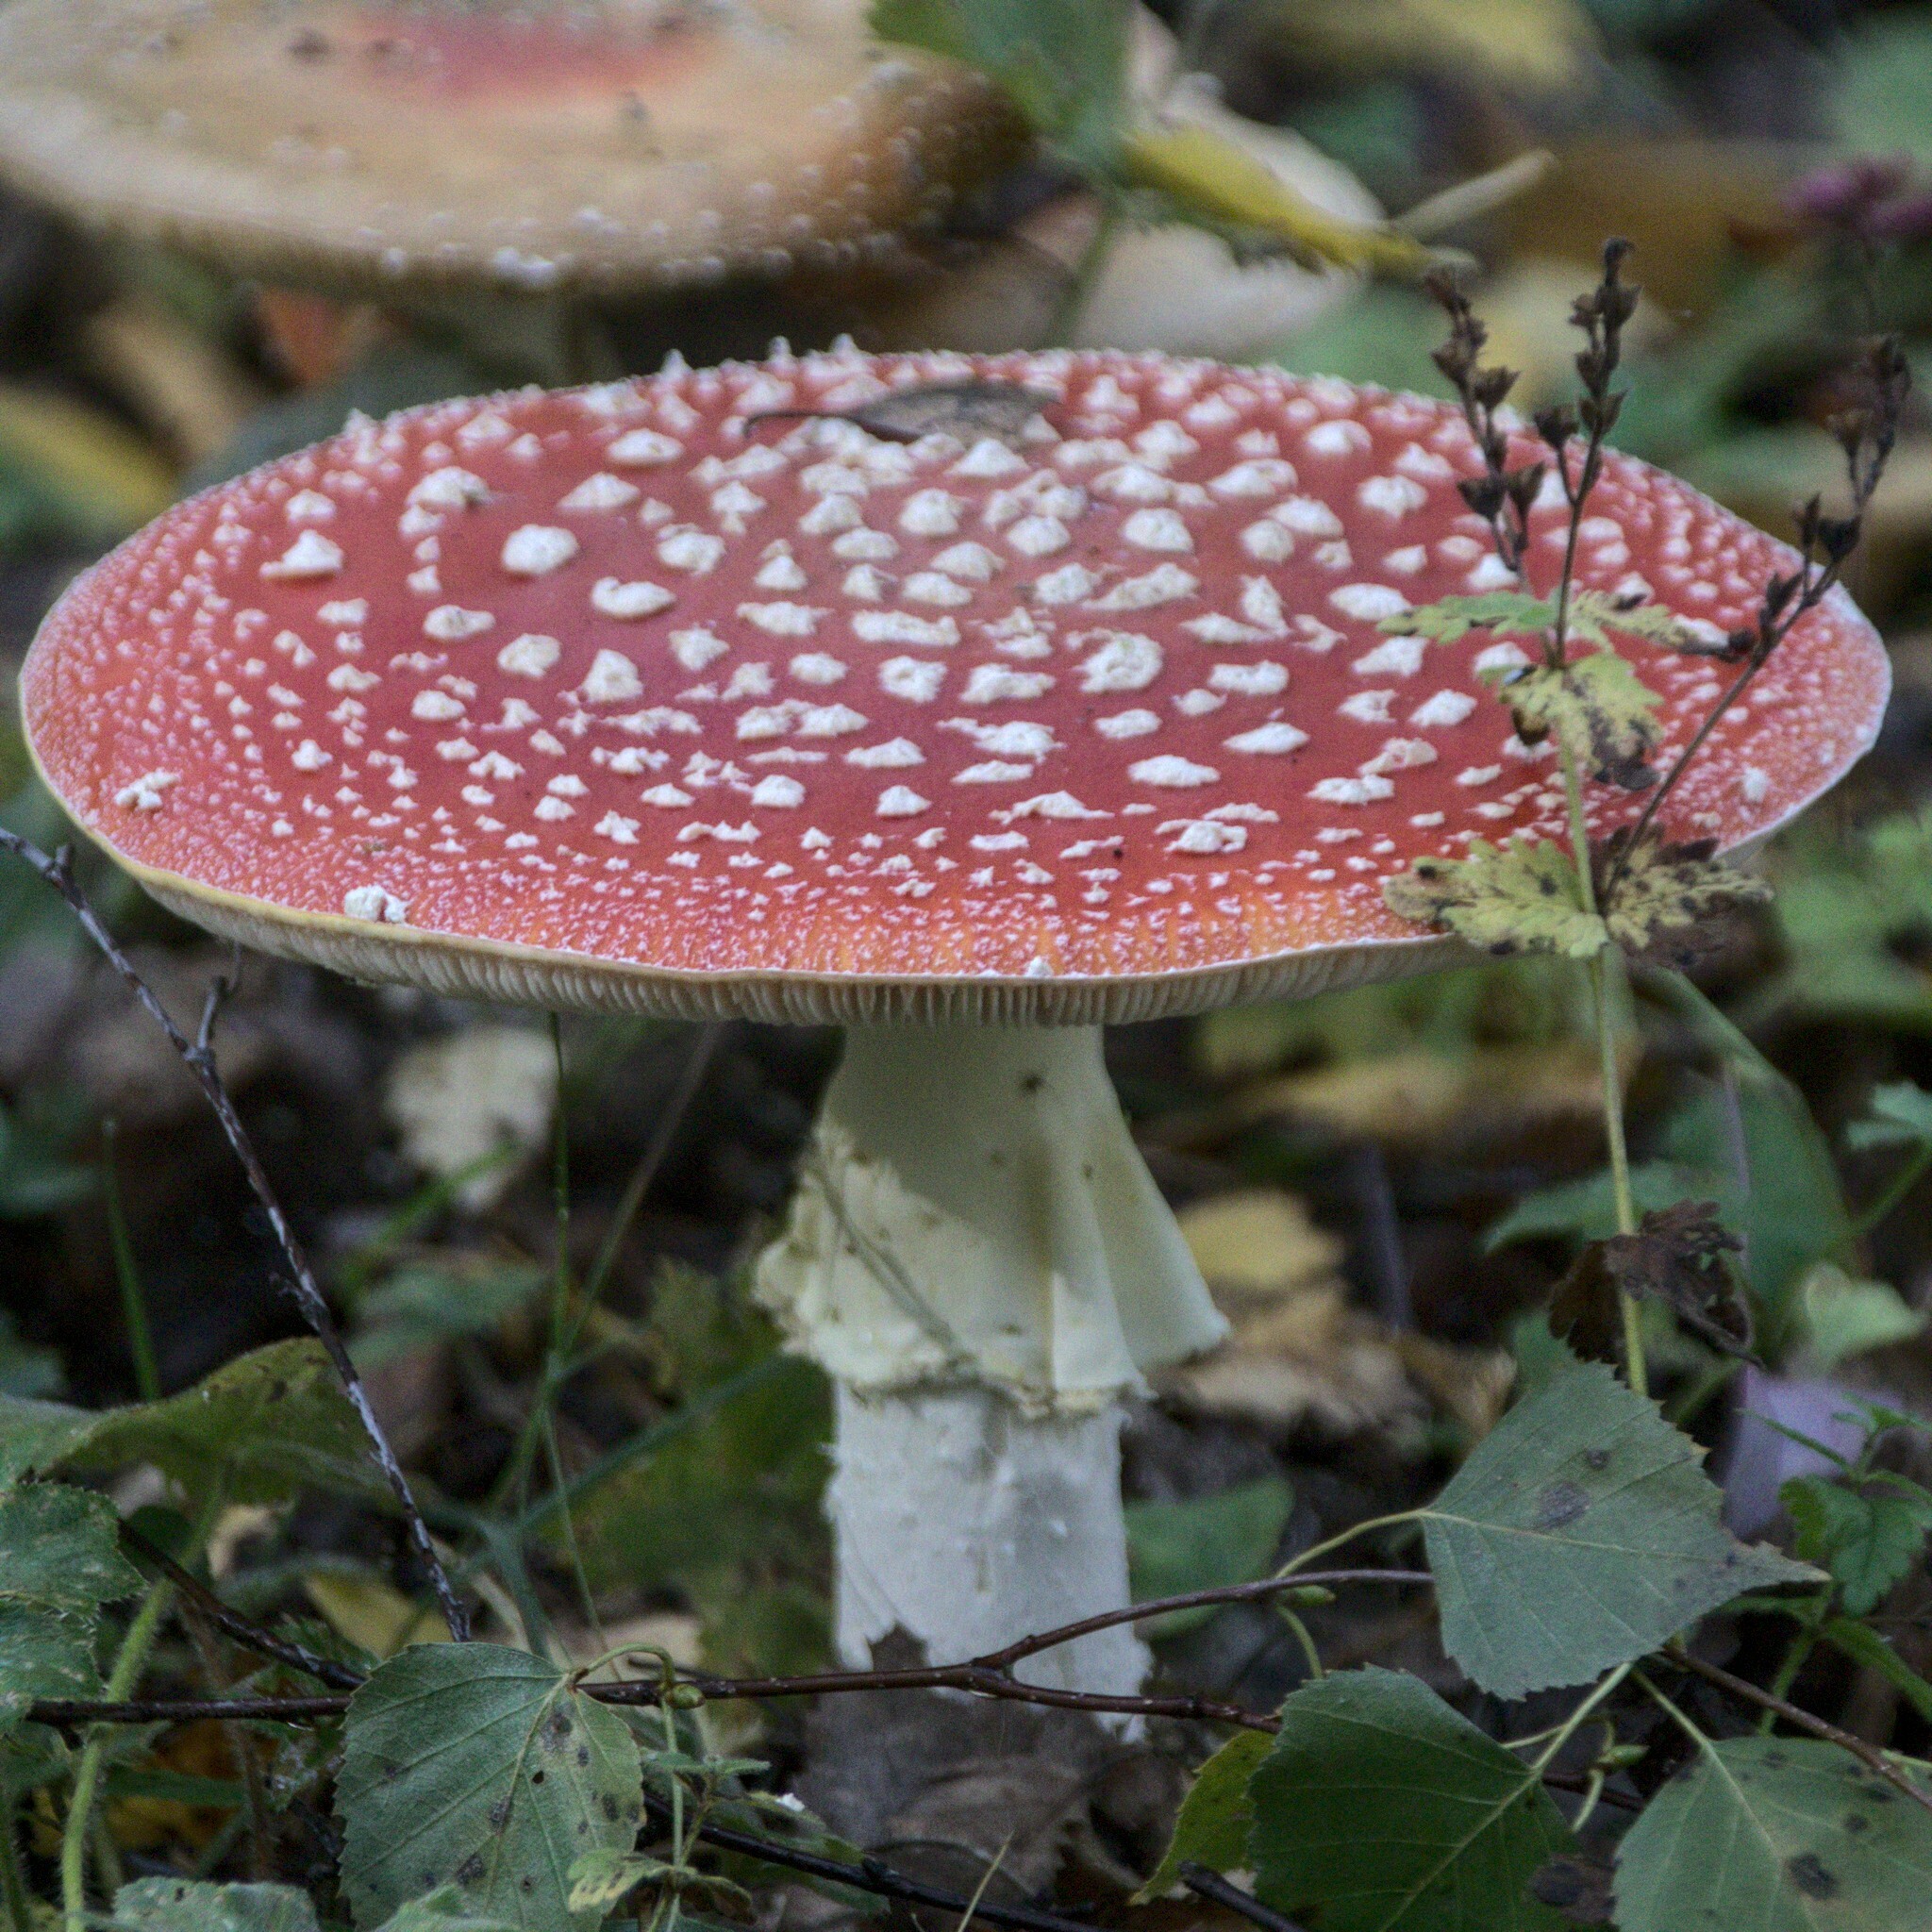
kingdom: Fungi
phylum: Basidiomycota
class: Agaricomycetes
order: Agaricales
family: Amanitaceae
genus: Amanita
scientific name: Amanita muscaria
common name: Fly agaric
